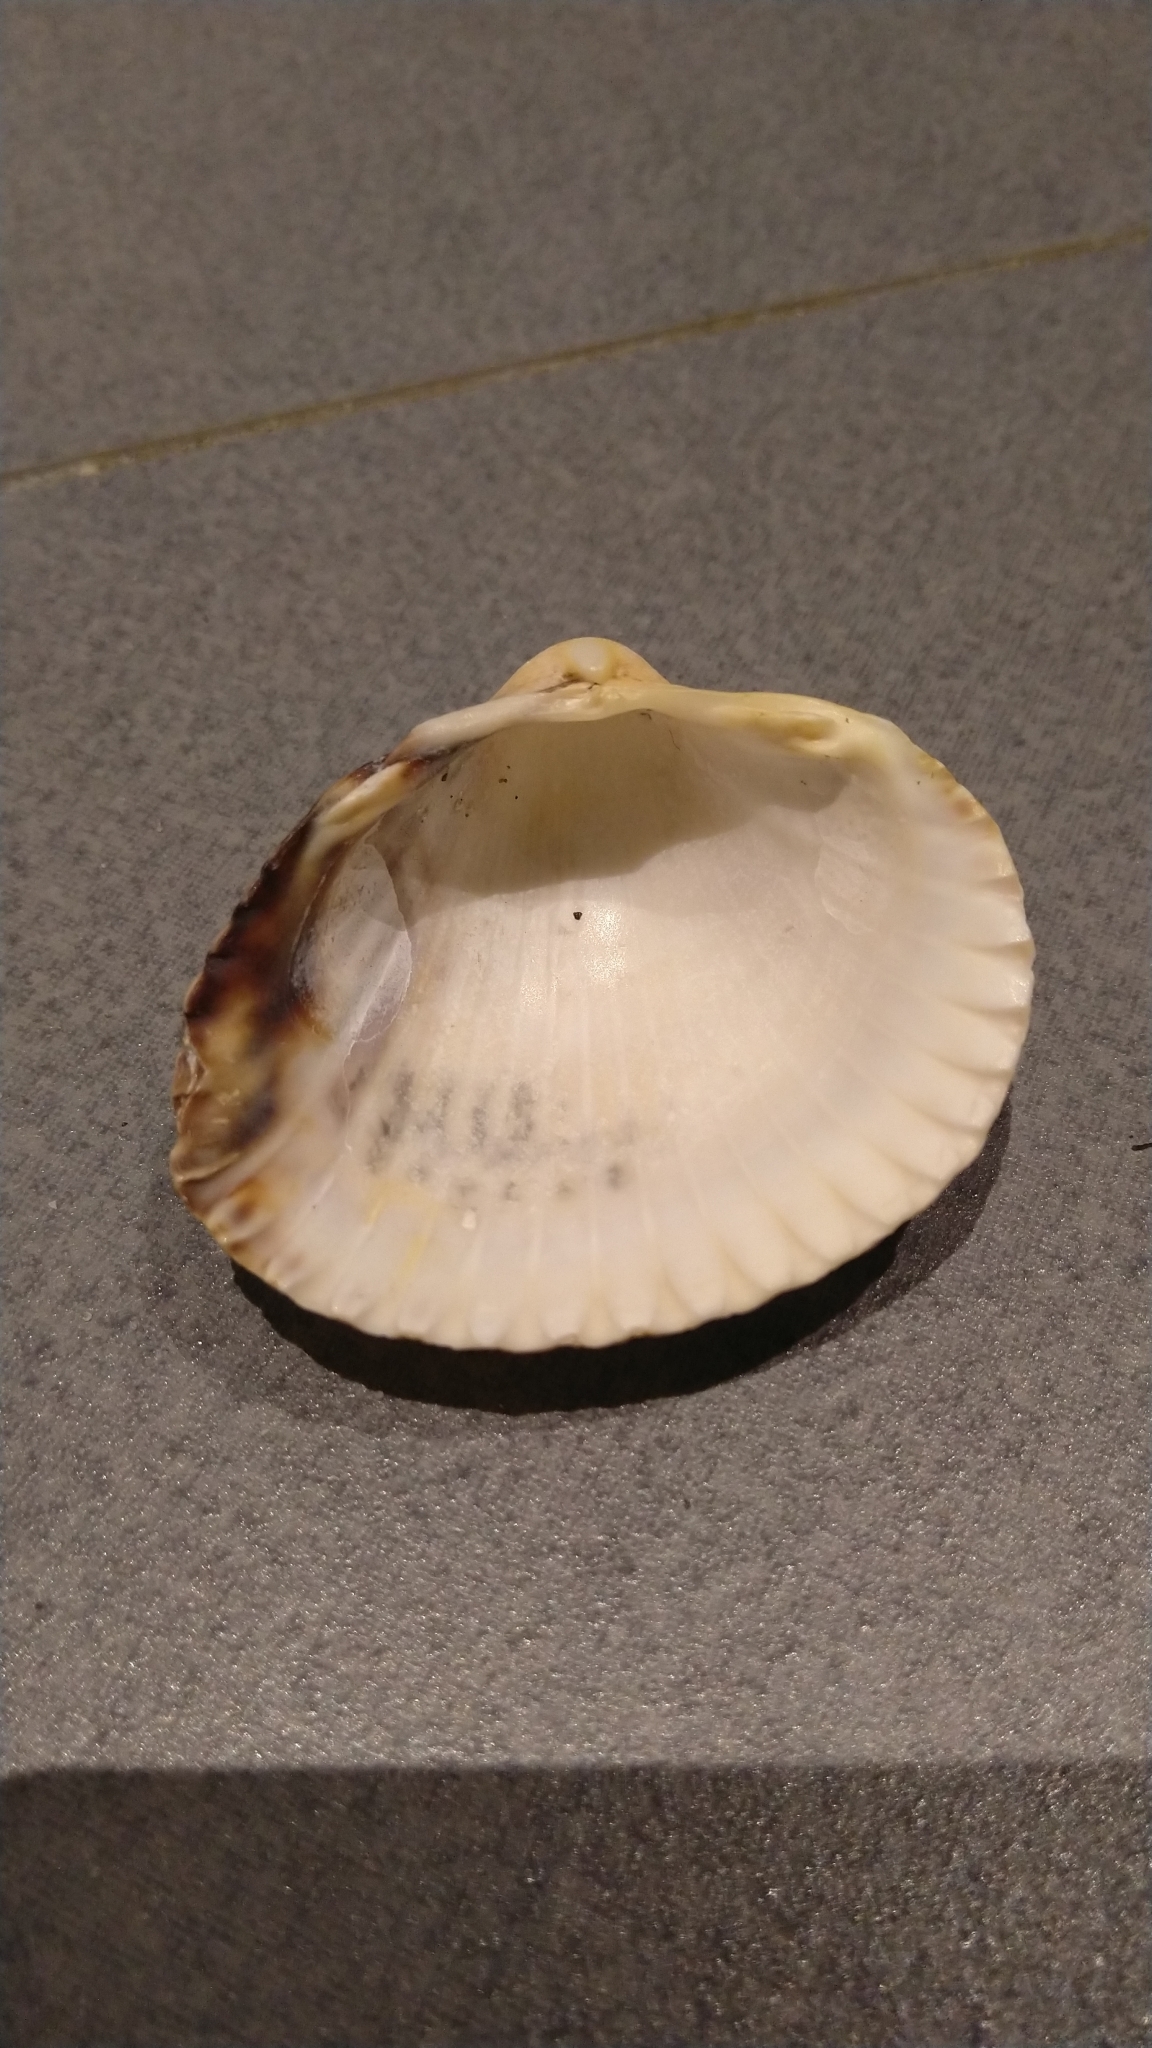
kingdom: Animalia
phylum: Mollusca
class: Bivalvia
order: Cardiida
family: Cardiidae
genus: Cerastoderma
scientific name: Cerastoderma edule
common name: Common cockle
